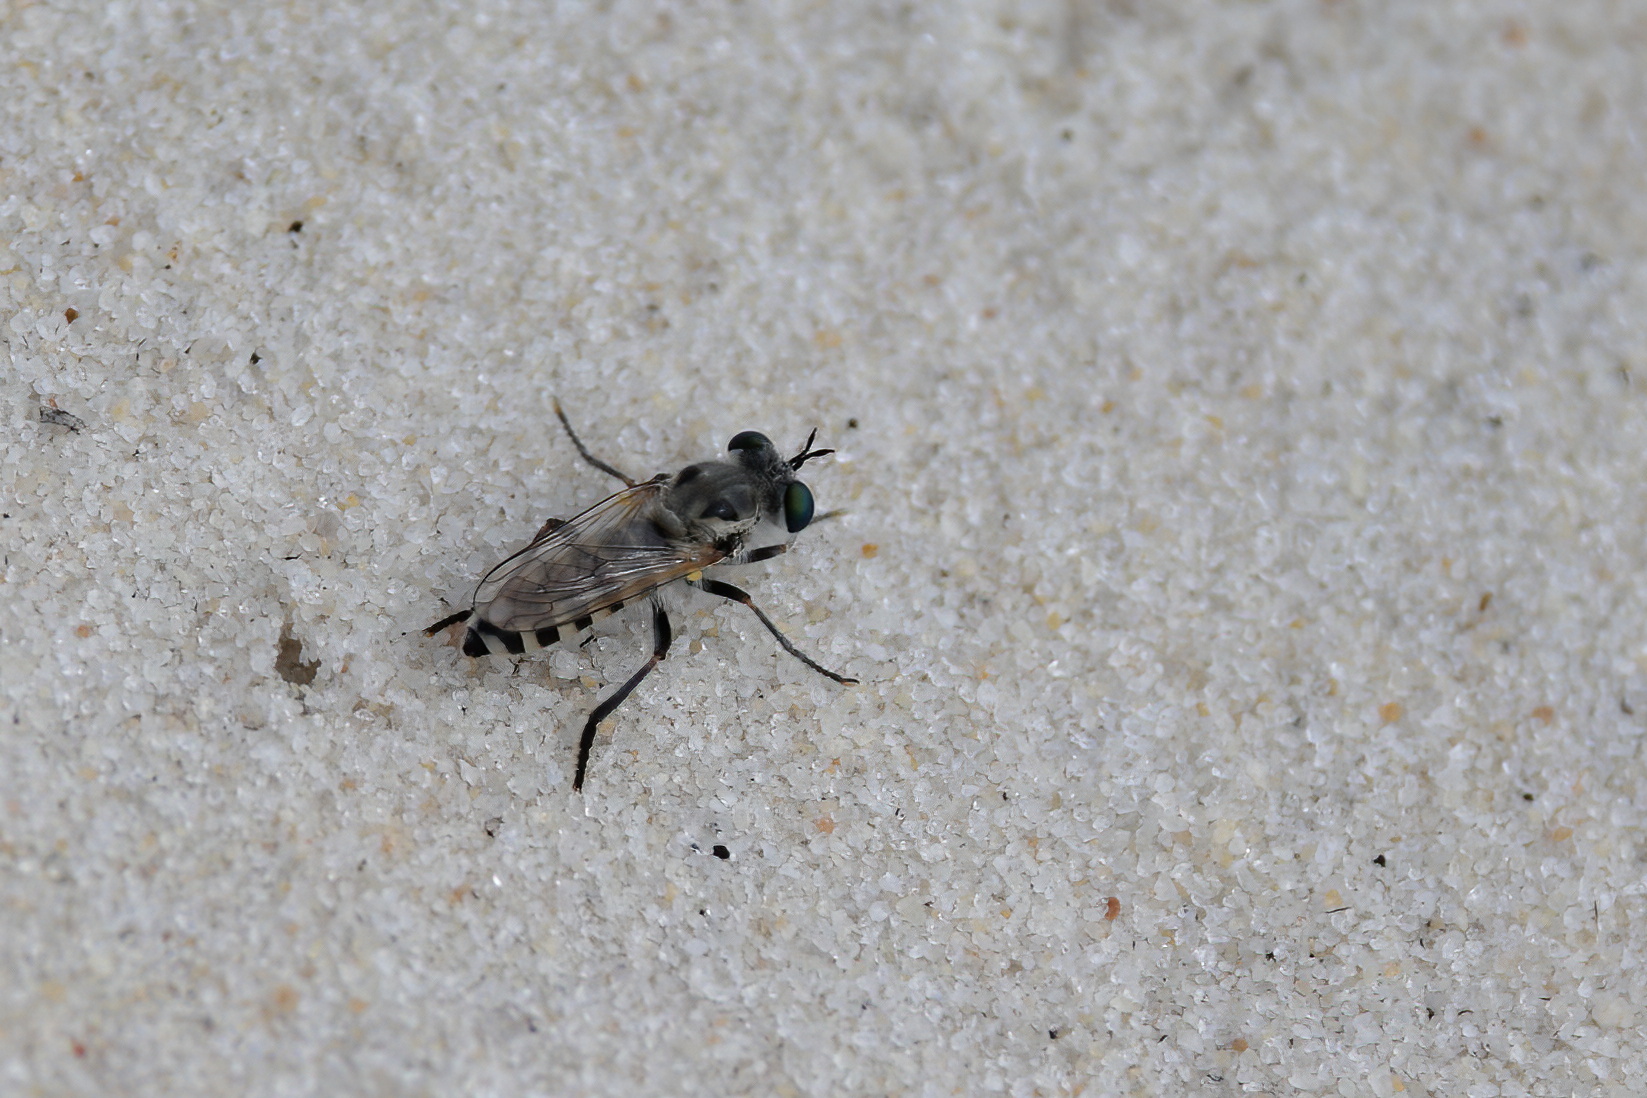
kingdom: Animalia
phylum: Arthropoda
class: Insecta
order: Diptera
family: Asilidae
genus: Laphystia
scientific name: Laphystia texensis
